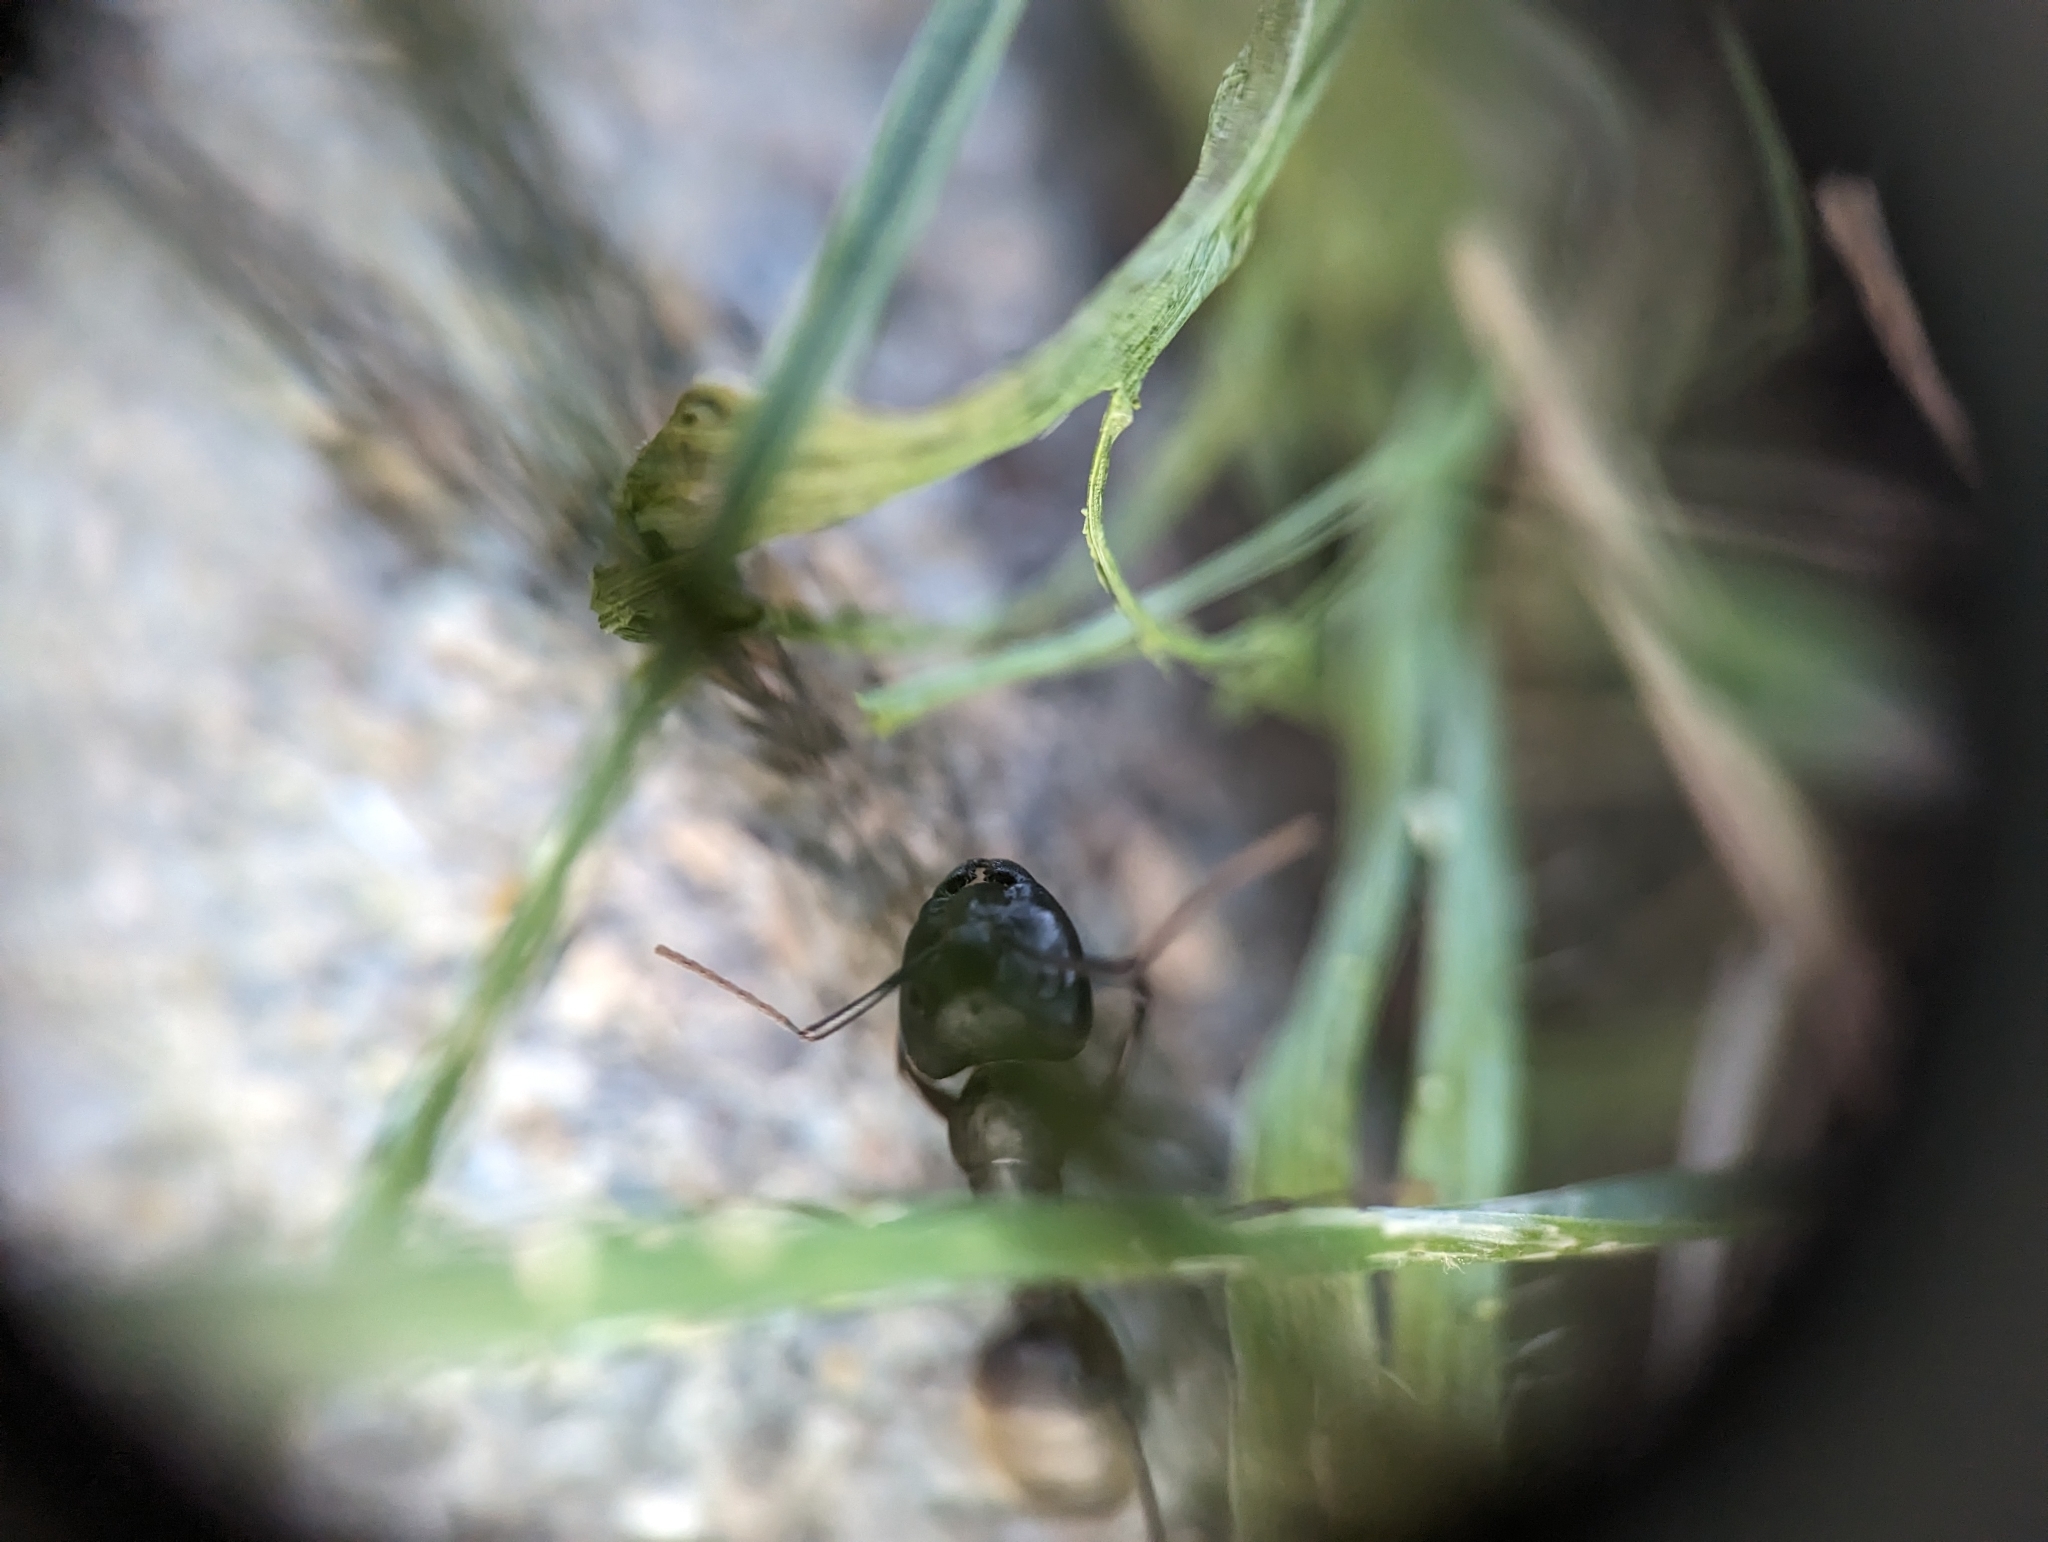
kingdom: Animalia
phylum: Arthropoda
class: Insecta
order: Hymenoptera
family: Formicidae
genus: Camponotus
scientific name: Camponotus pennsylvanicus
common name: Black carpenter ant
